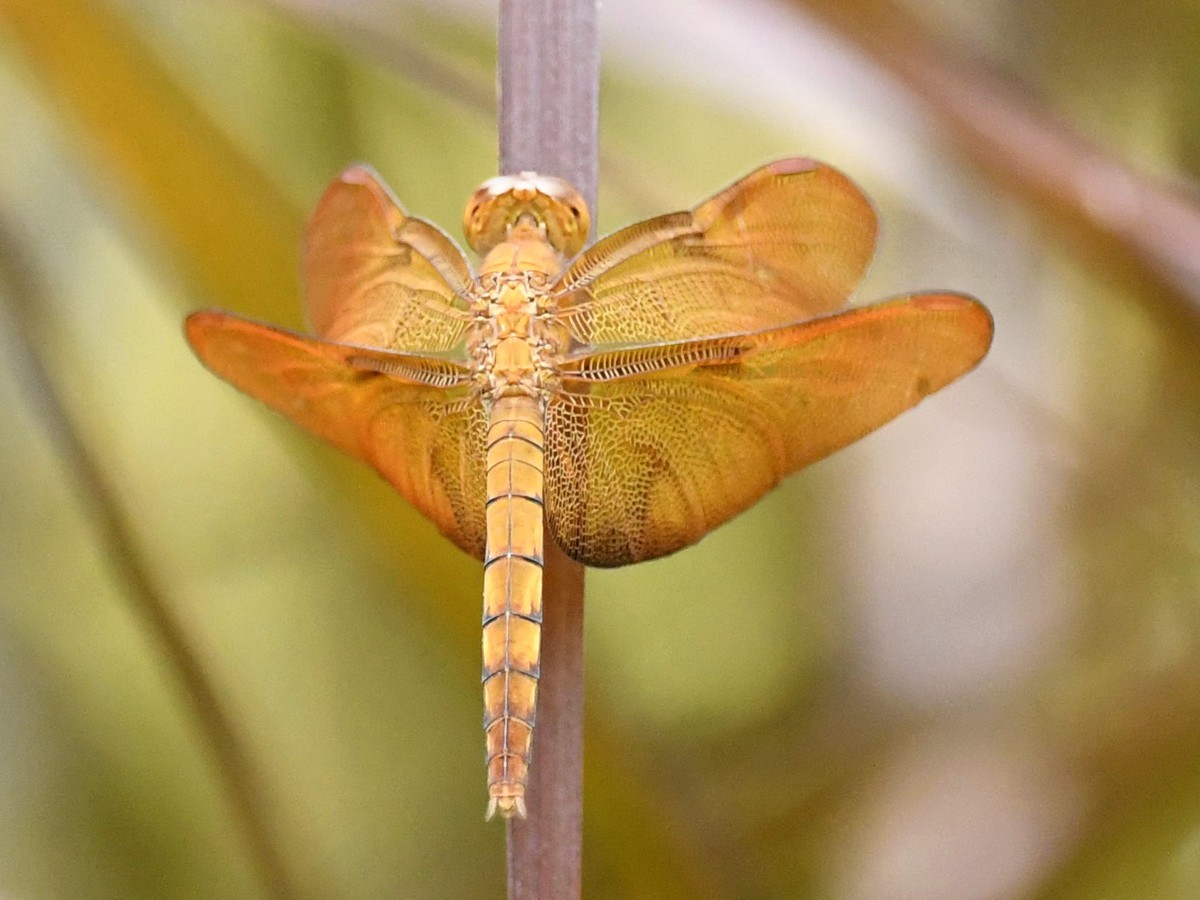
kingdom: Animalia
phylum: Arthropoda
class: Insecta
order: Odonata
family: Libellulidae
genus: Neurothemis
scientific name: Neurothemis fulvia
